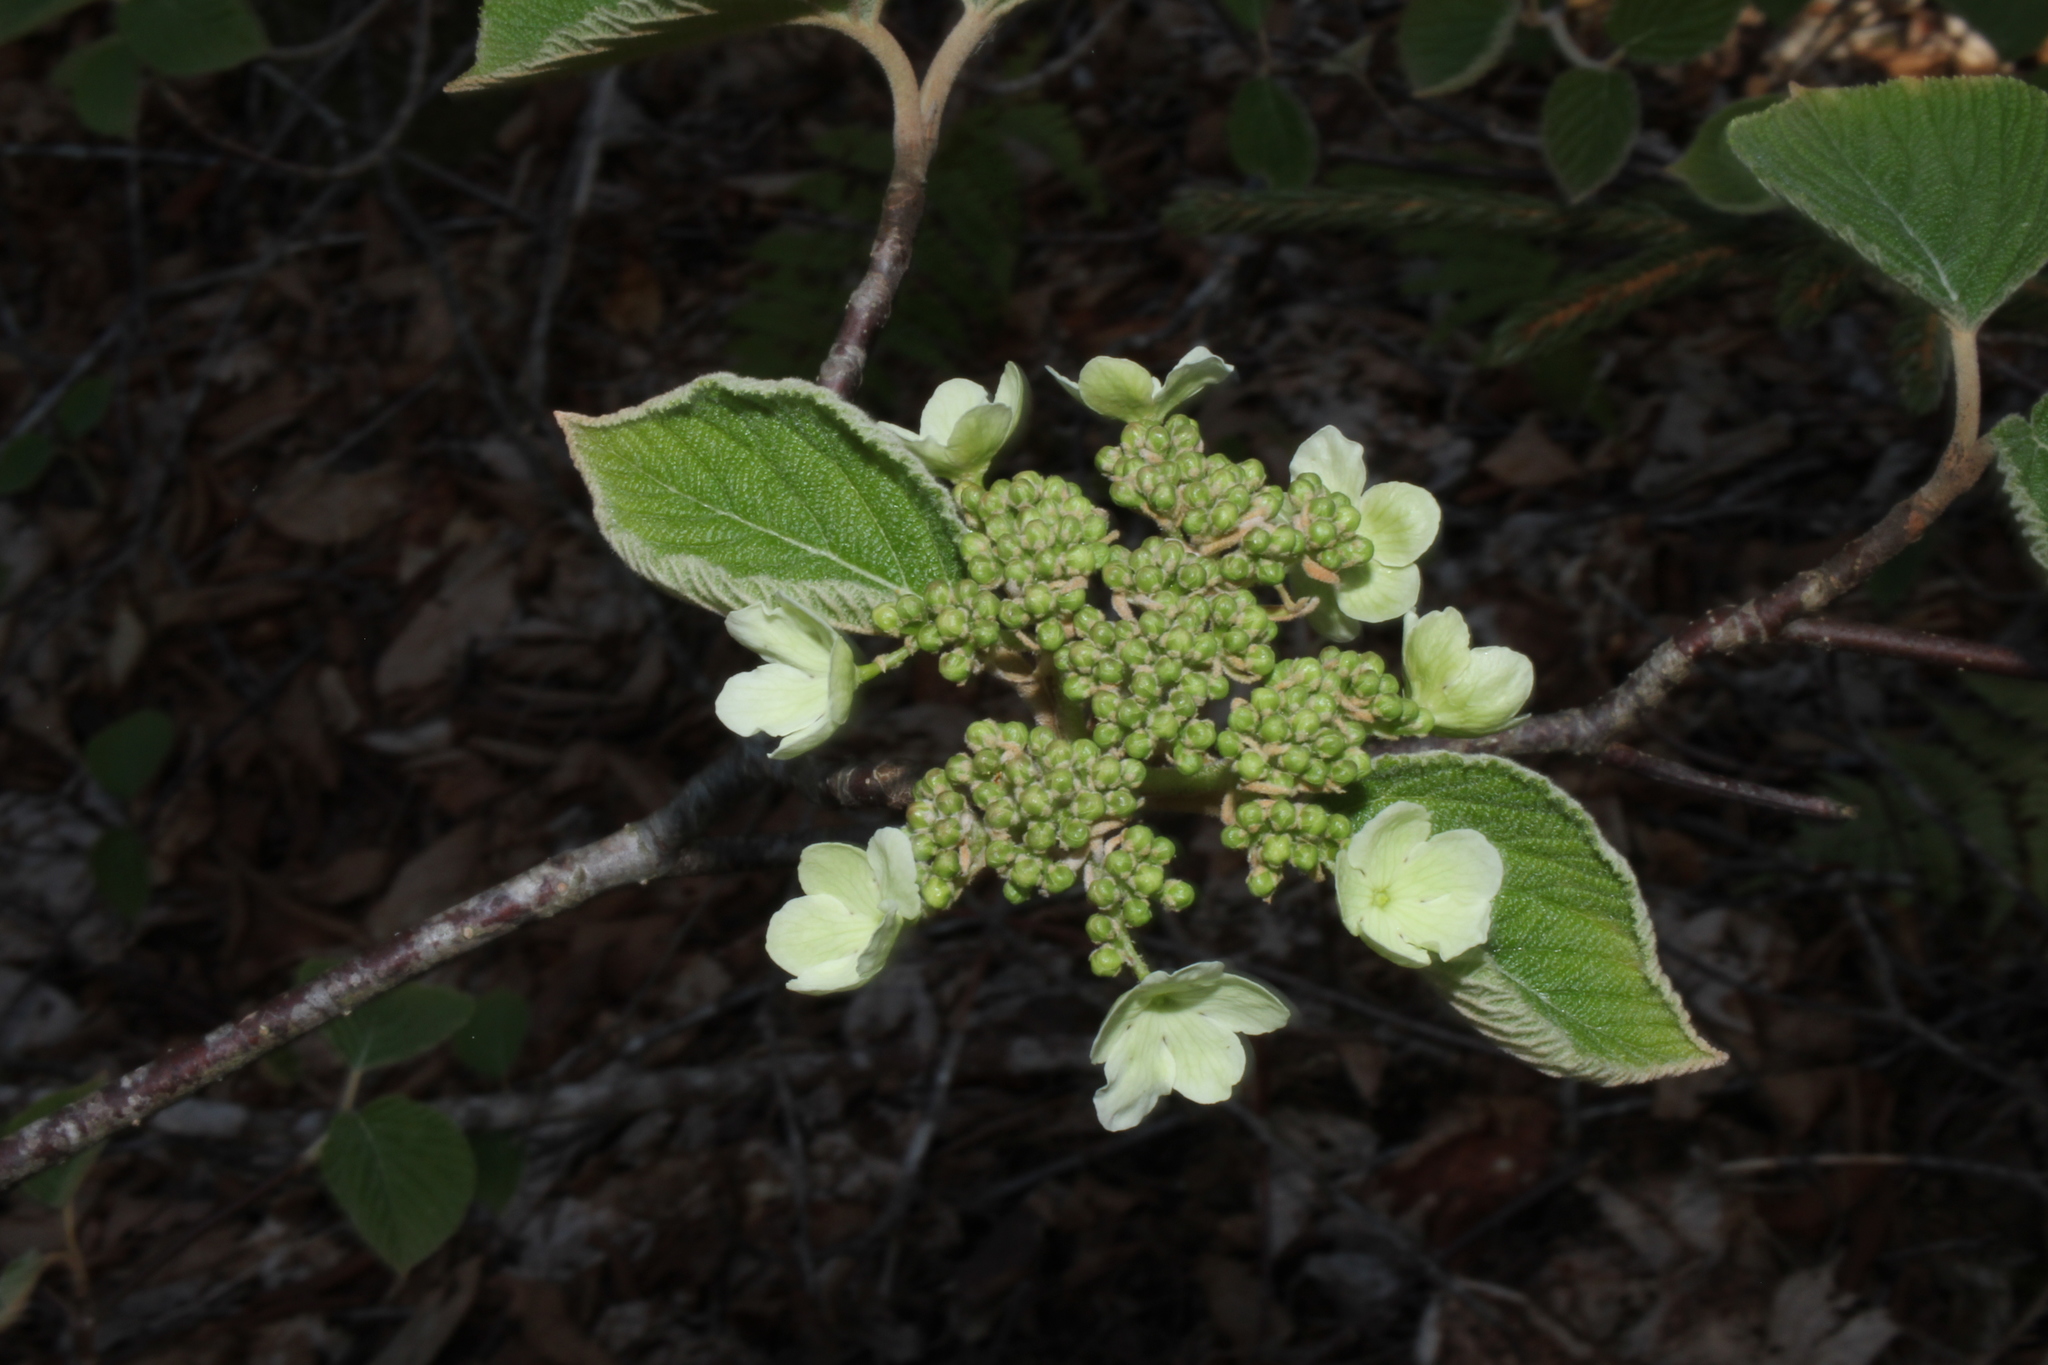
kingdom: Plantae
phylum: Tracheophyta
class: Magnoliopsida
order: Dipsacales
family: Viburnaceae
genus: Viburnum
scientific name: Viburnum lantanoides
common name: Hobblebush
